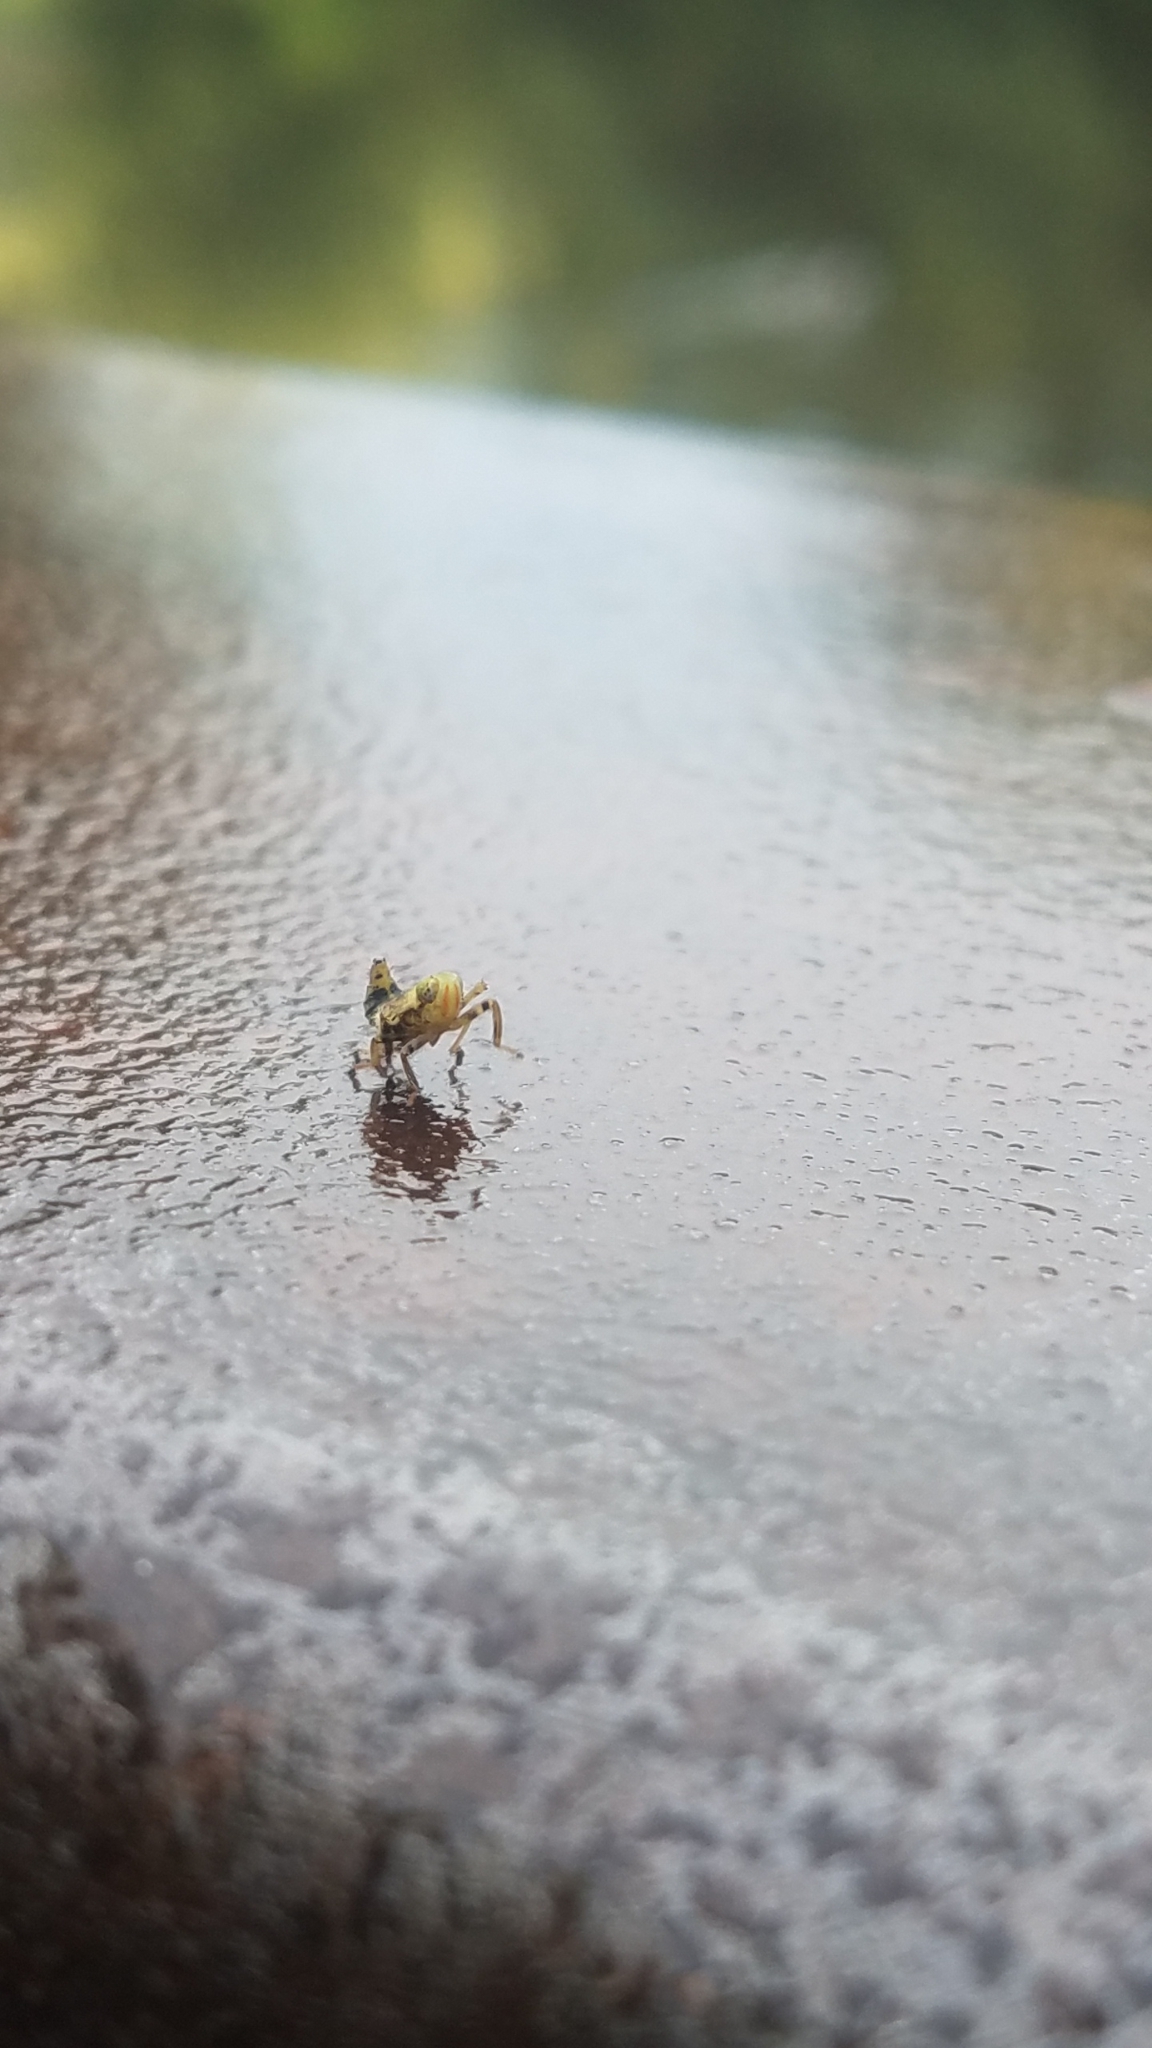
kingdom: Animalia
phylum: Arthropoda
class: Insecta
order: Hemiptera
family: Cicadellidae
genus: Jikradia
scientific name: Jikradia olitoria
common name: Coppery leafhopper
